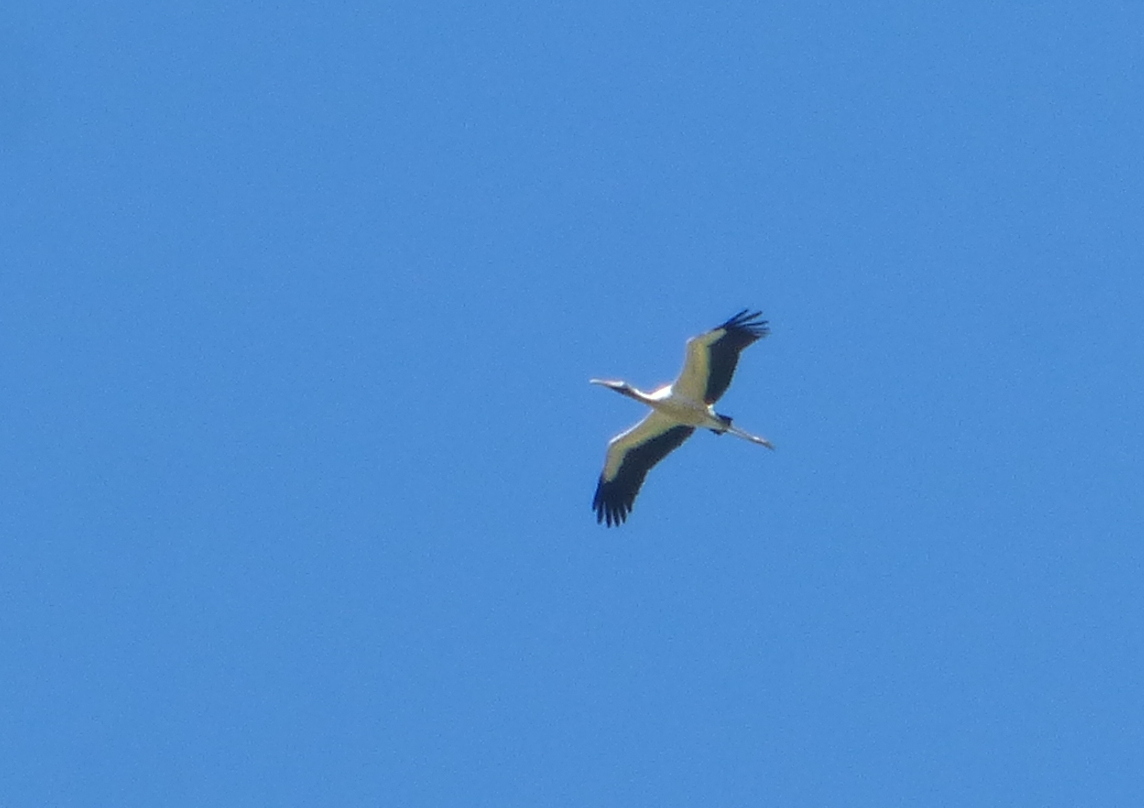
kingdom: Animalia
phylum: Chordata
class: Aves
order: Ciconiiformes
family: Ciconiidae
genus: Mycteria
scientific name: Mycteria americana
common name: Wood stork
